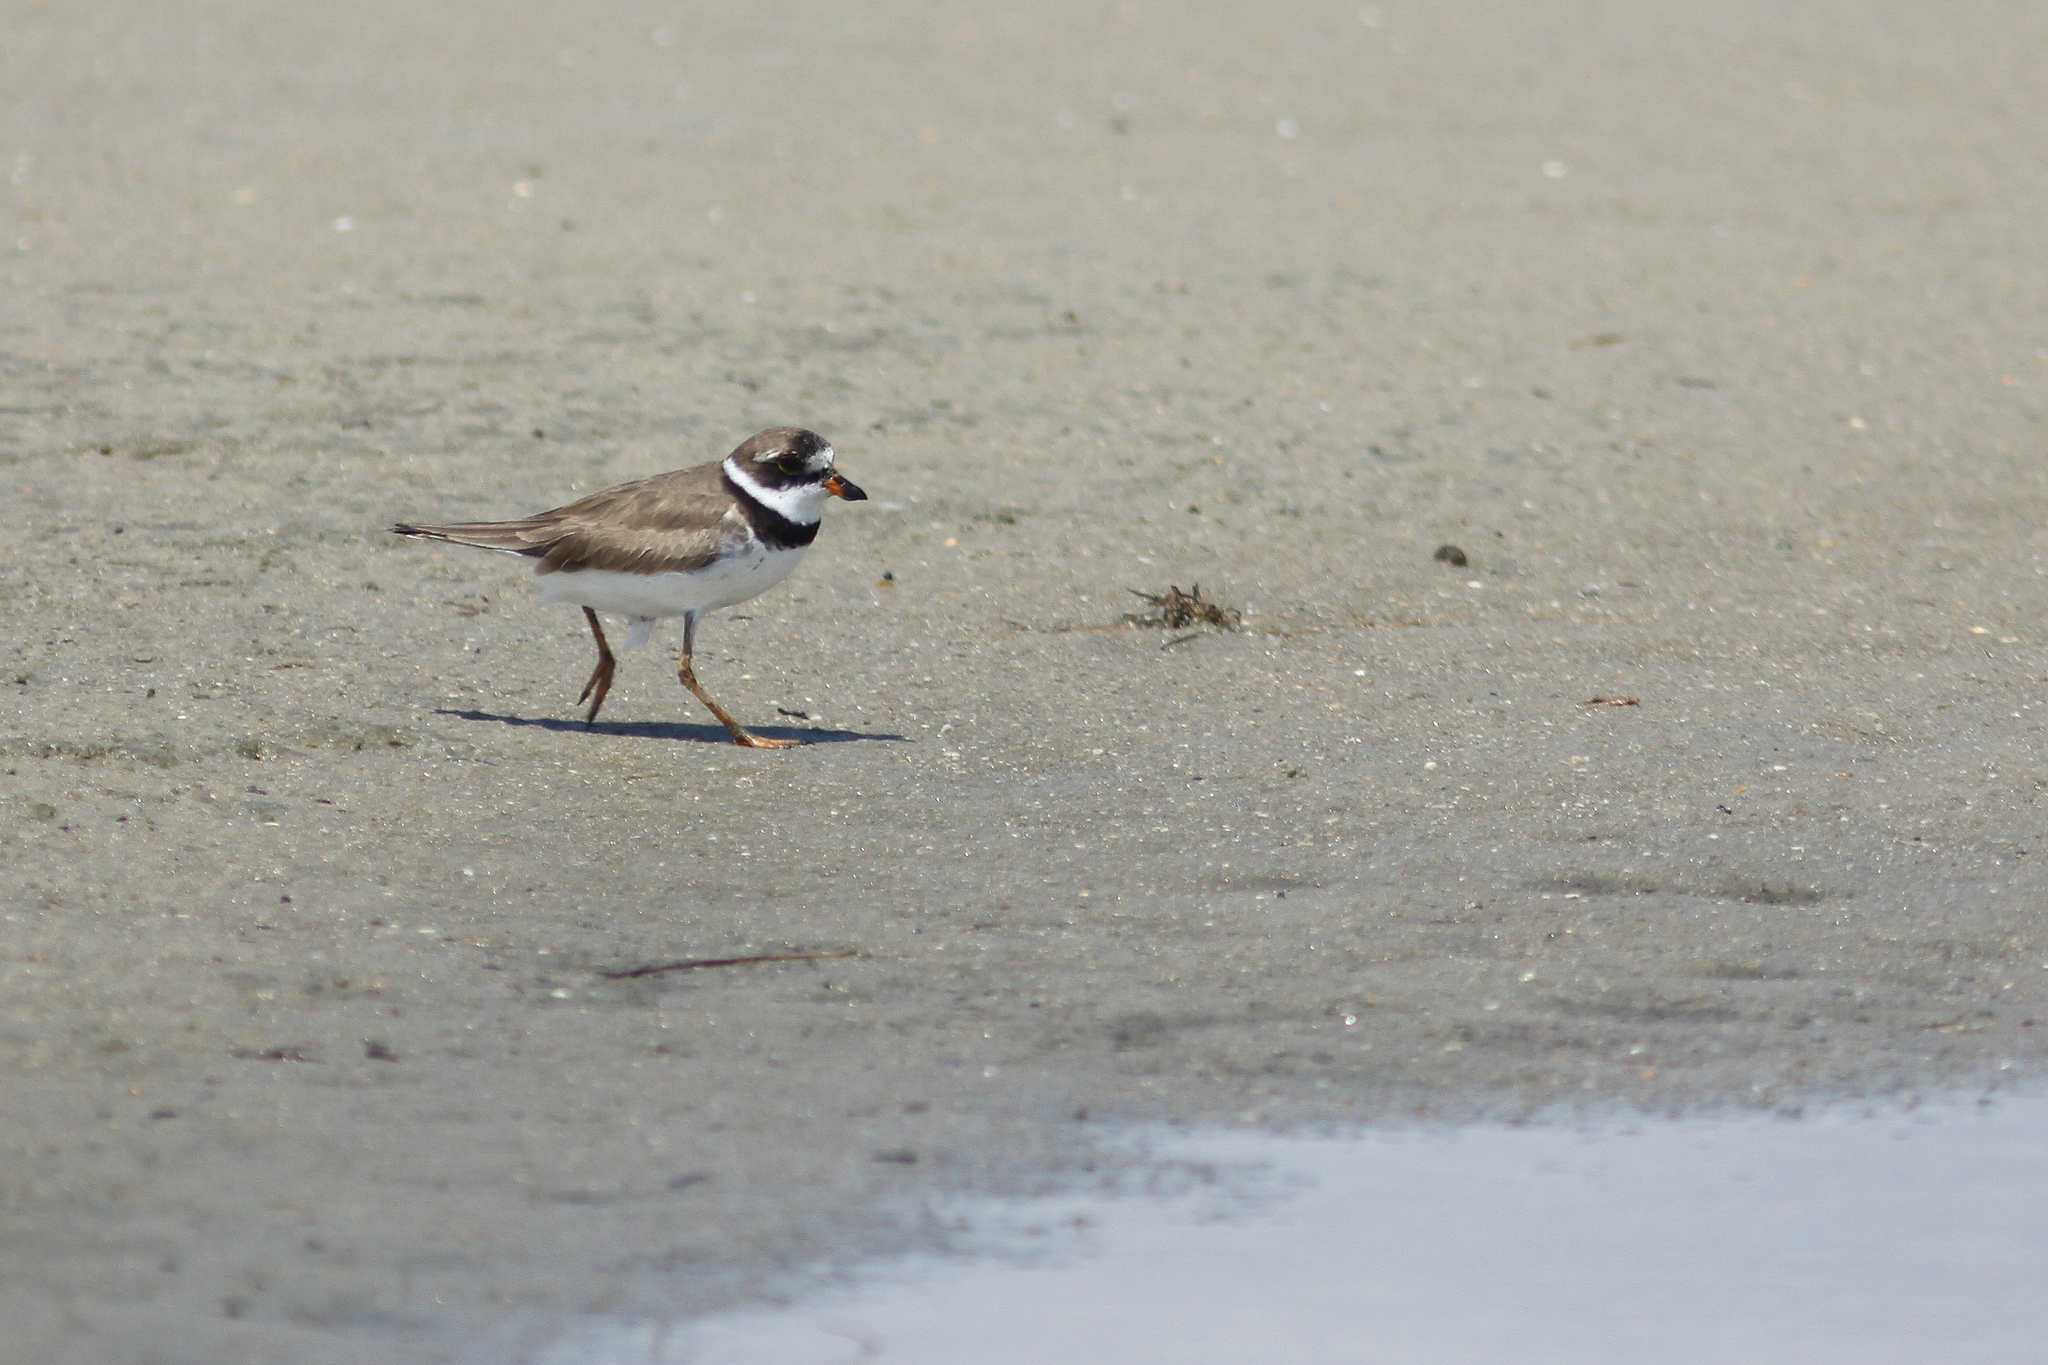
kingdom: Animalia
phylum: Chordata
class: Aves
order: Charadriiformes
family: Charadriidae
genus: Charadrius
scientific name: Charadrius semipalmatus
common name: Semipalmated plover
